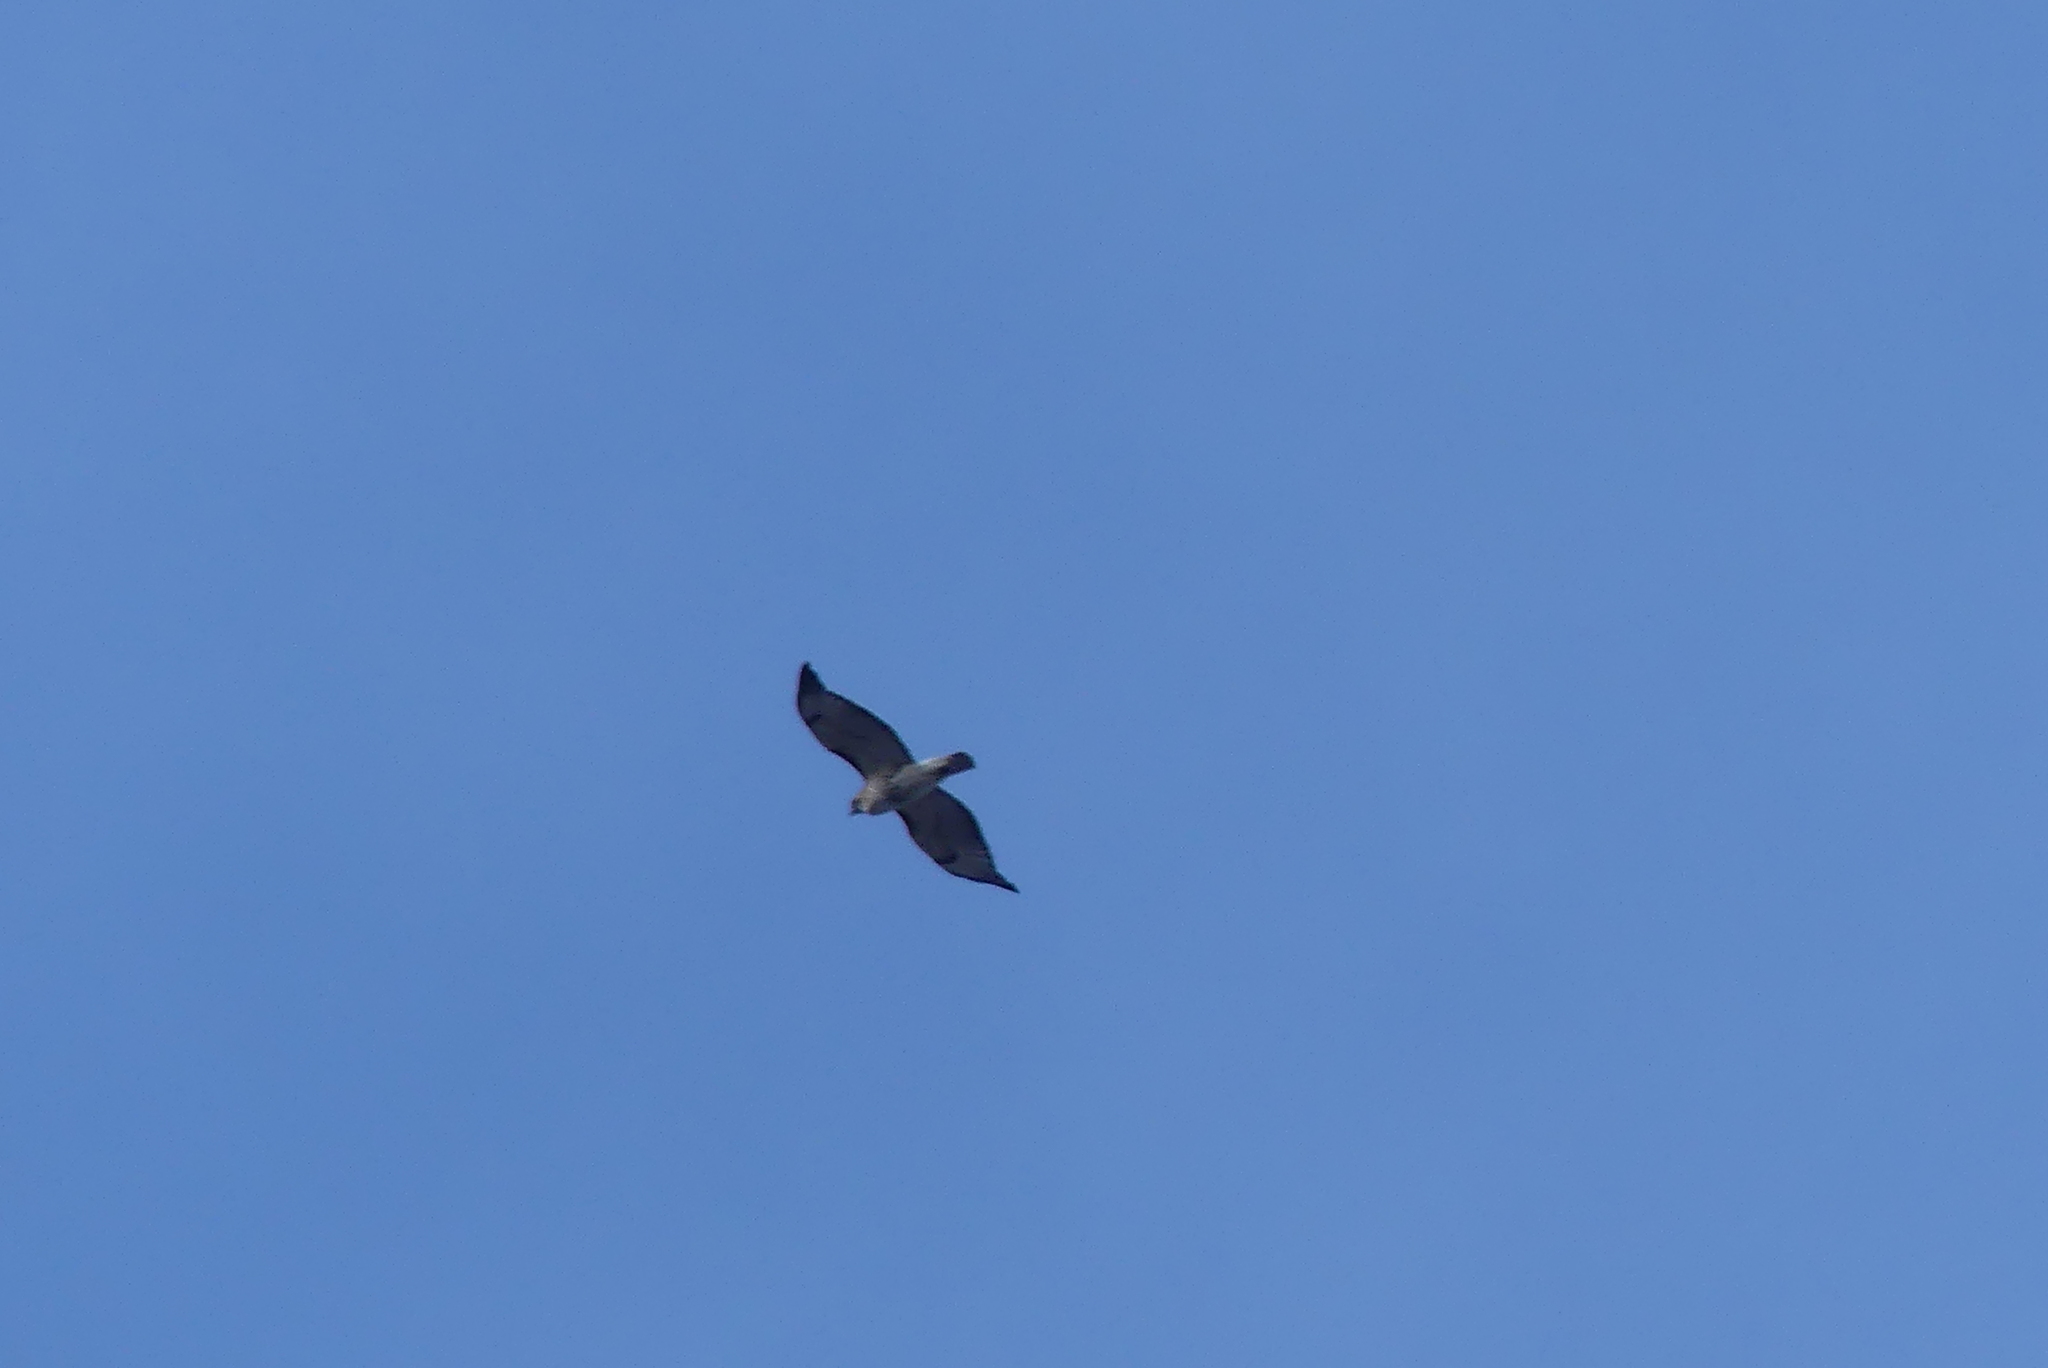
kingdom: Animalia
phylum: Chordata
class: Aves
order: Accipitriformes
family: Accipitridae
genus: Buteo
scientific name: Buteo jamaicensis
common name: Red-tailed hawk
